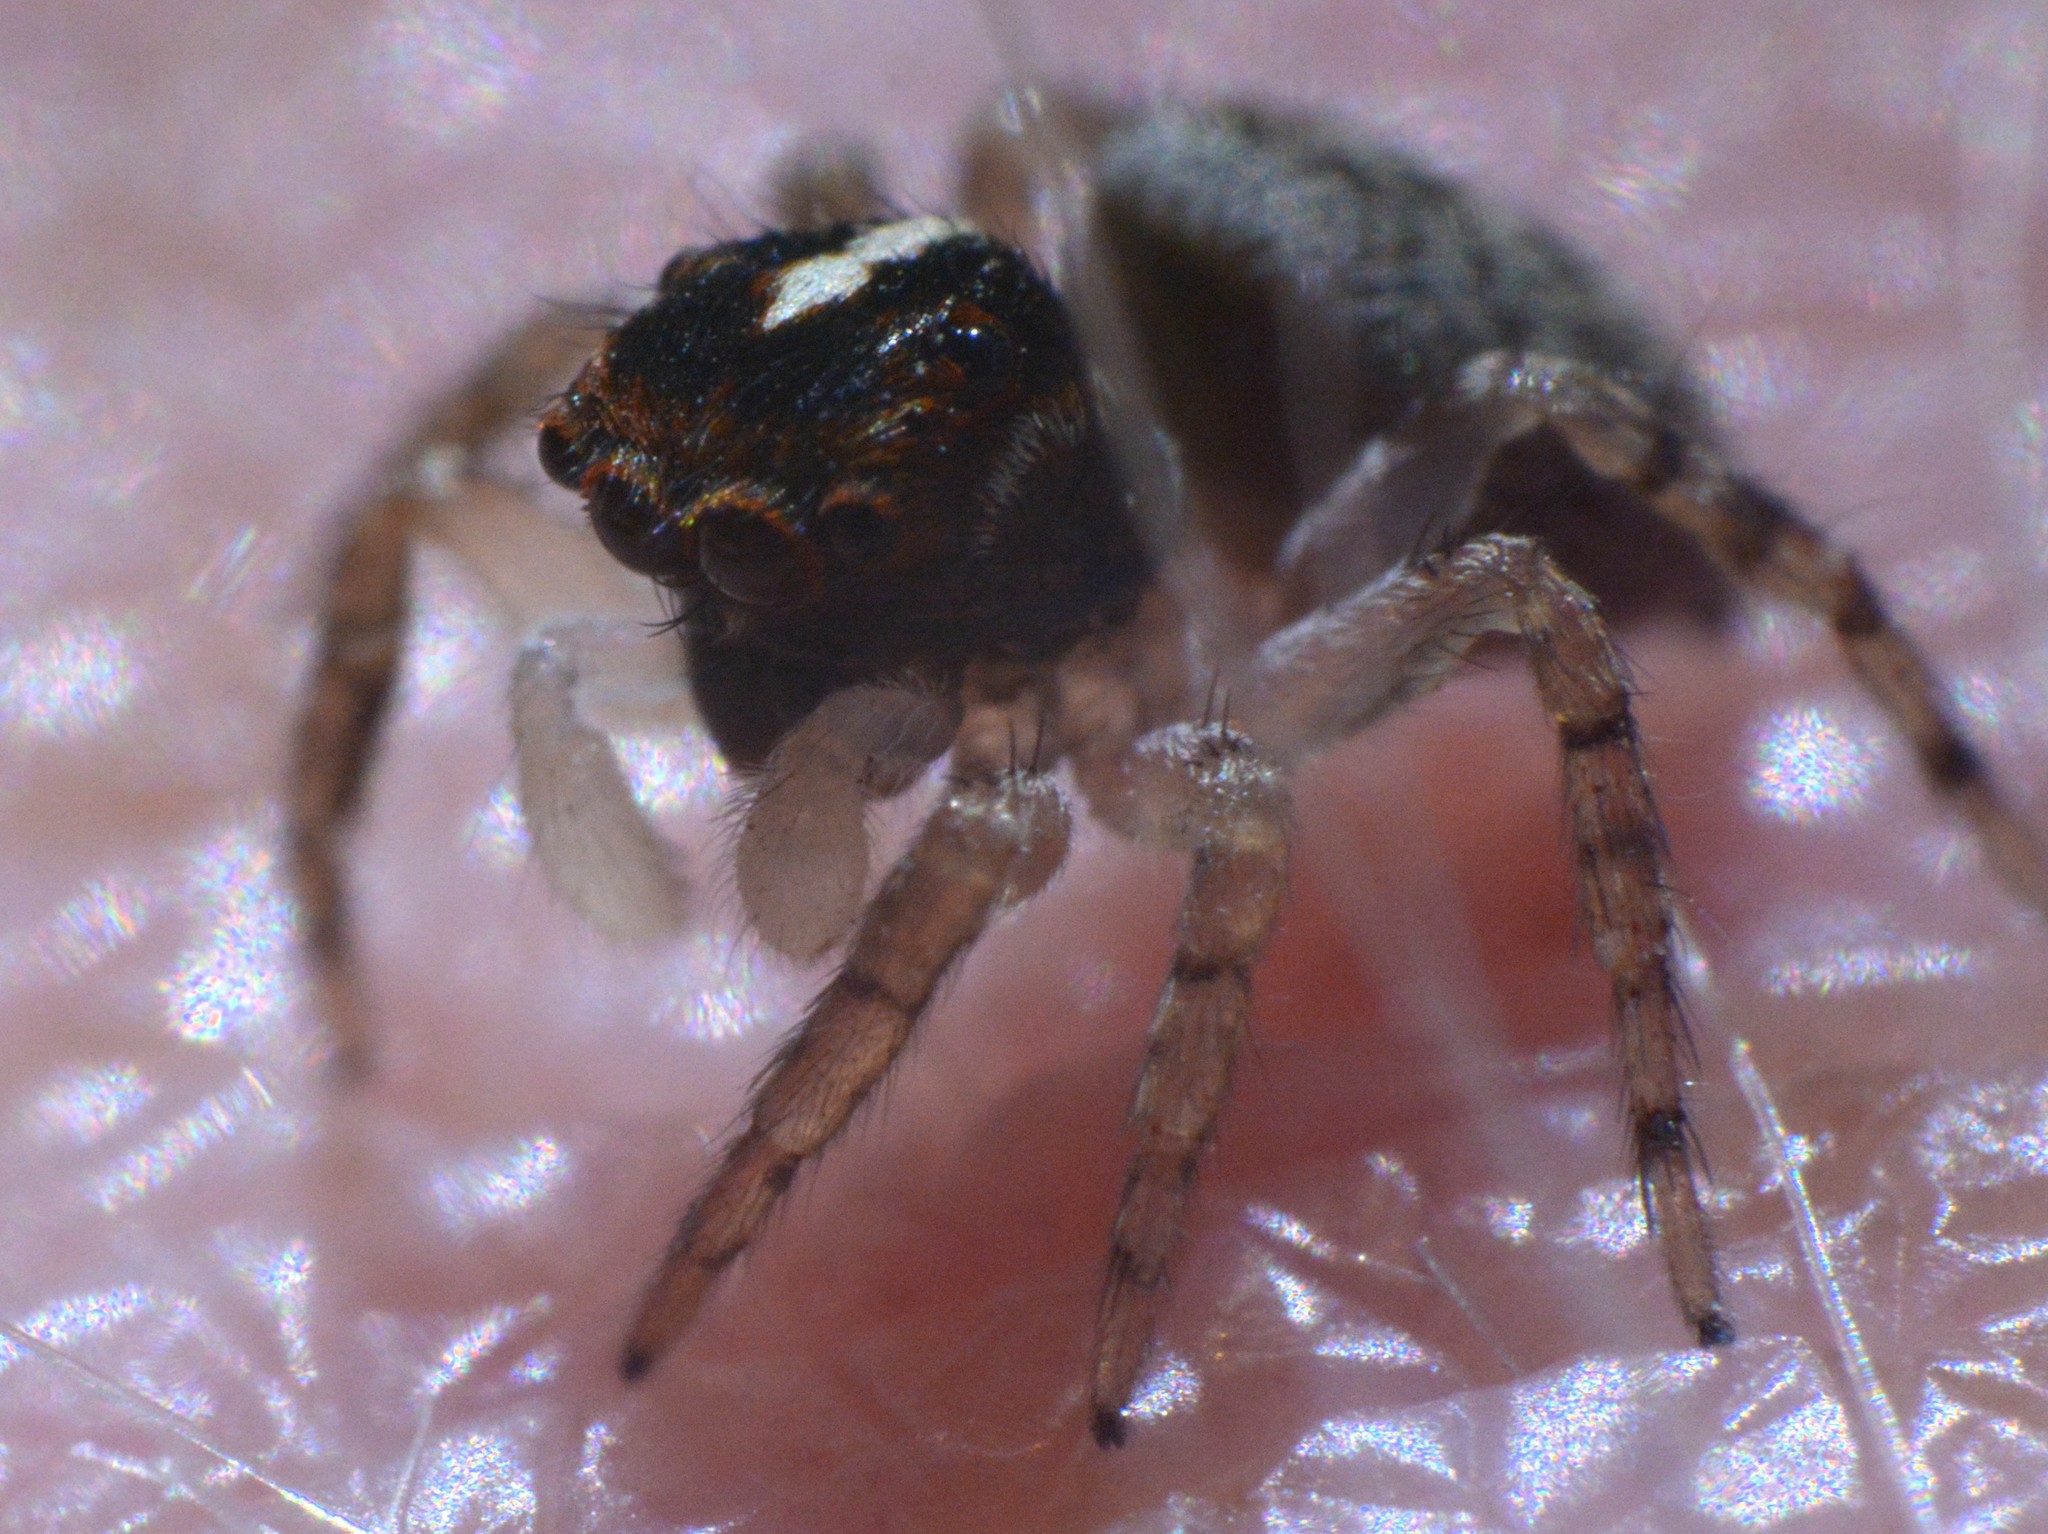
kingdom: Animalia
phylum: Arthropoda
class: Arachnida
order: Araneae
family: Salticidae
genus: Thyenula
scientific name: Thyenula munda
